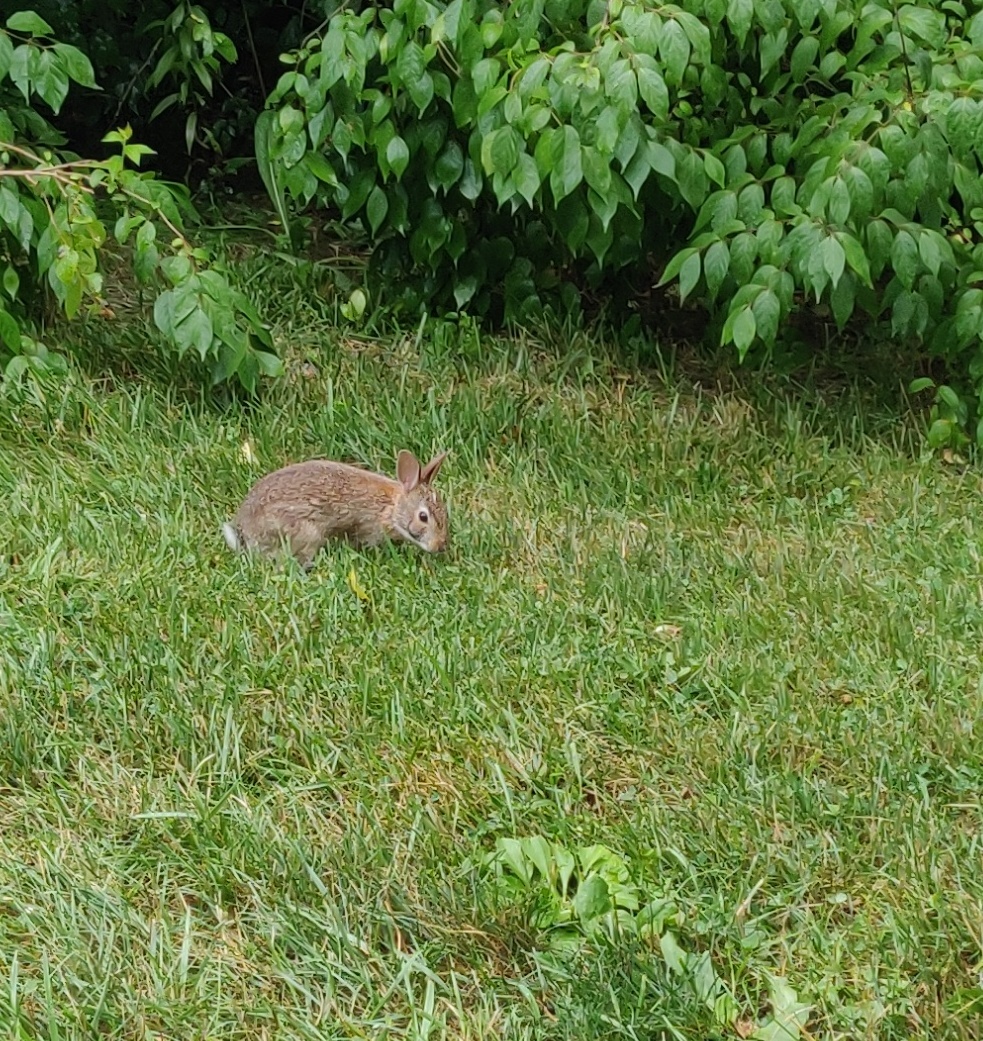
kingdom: Animalia
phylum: Chordata
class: Mammalia
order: Lagomorpha
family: Leporidae
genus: Sylvilagus
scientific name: Sylvilagus floridanus
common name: Eastern cottontail
